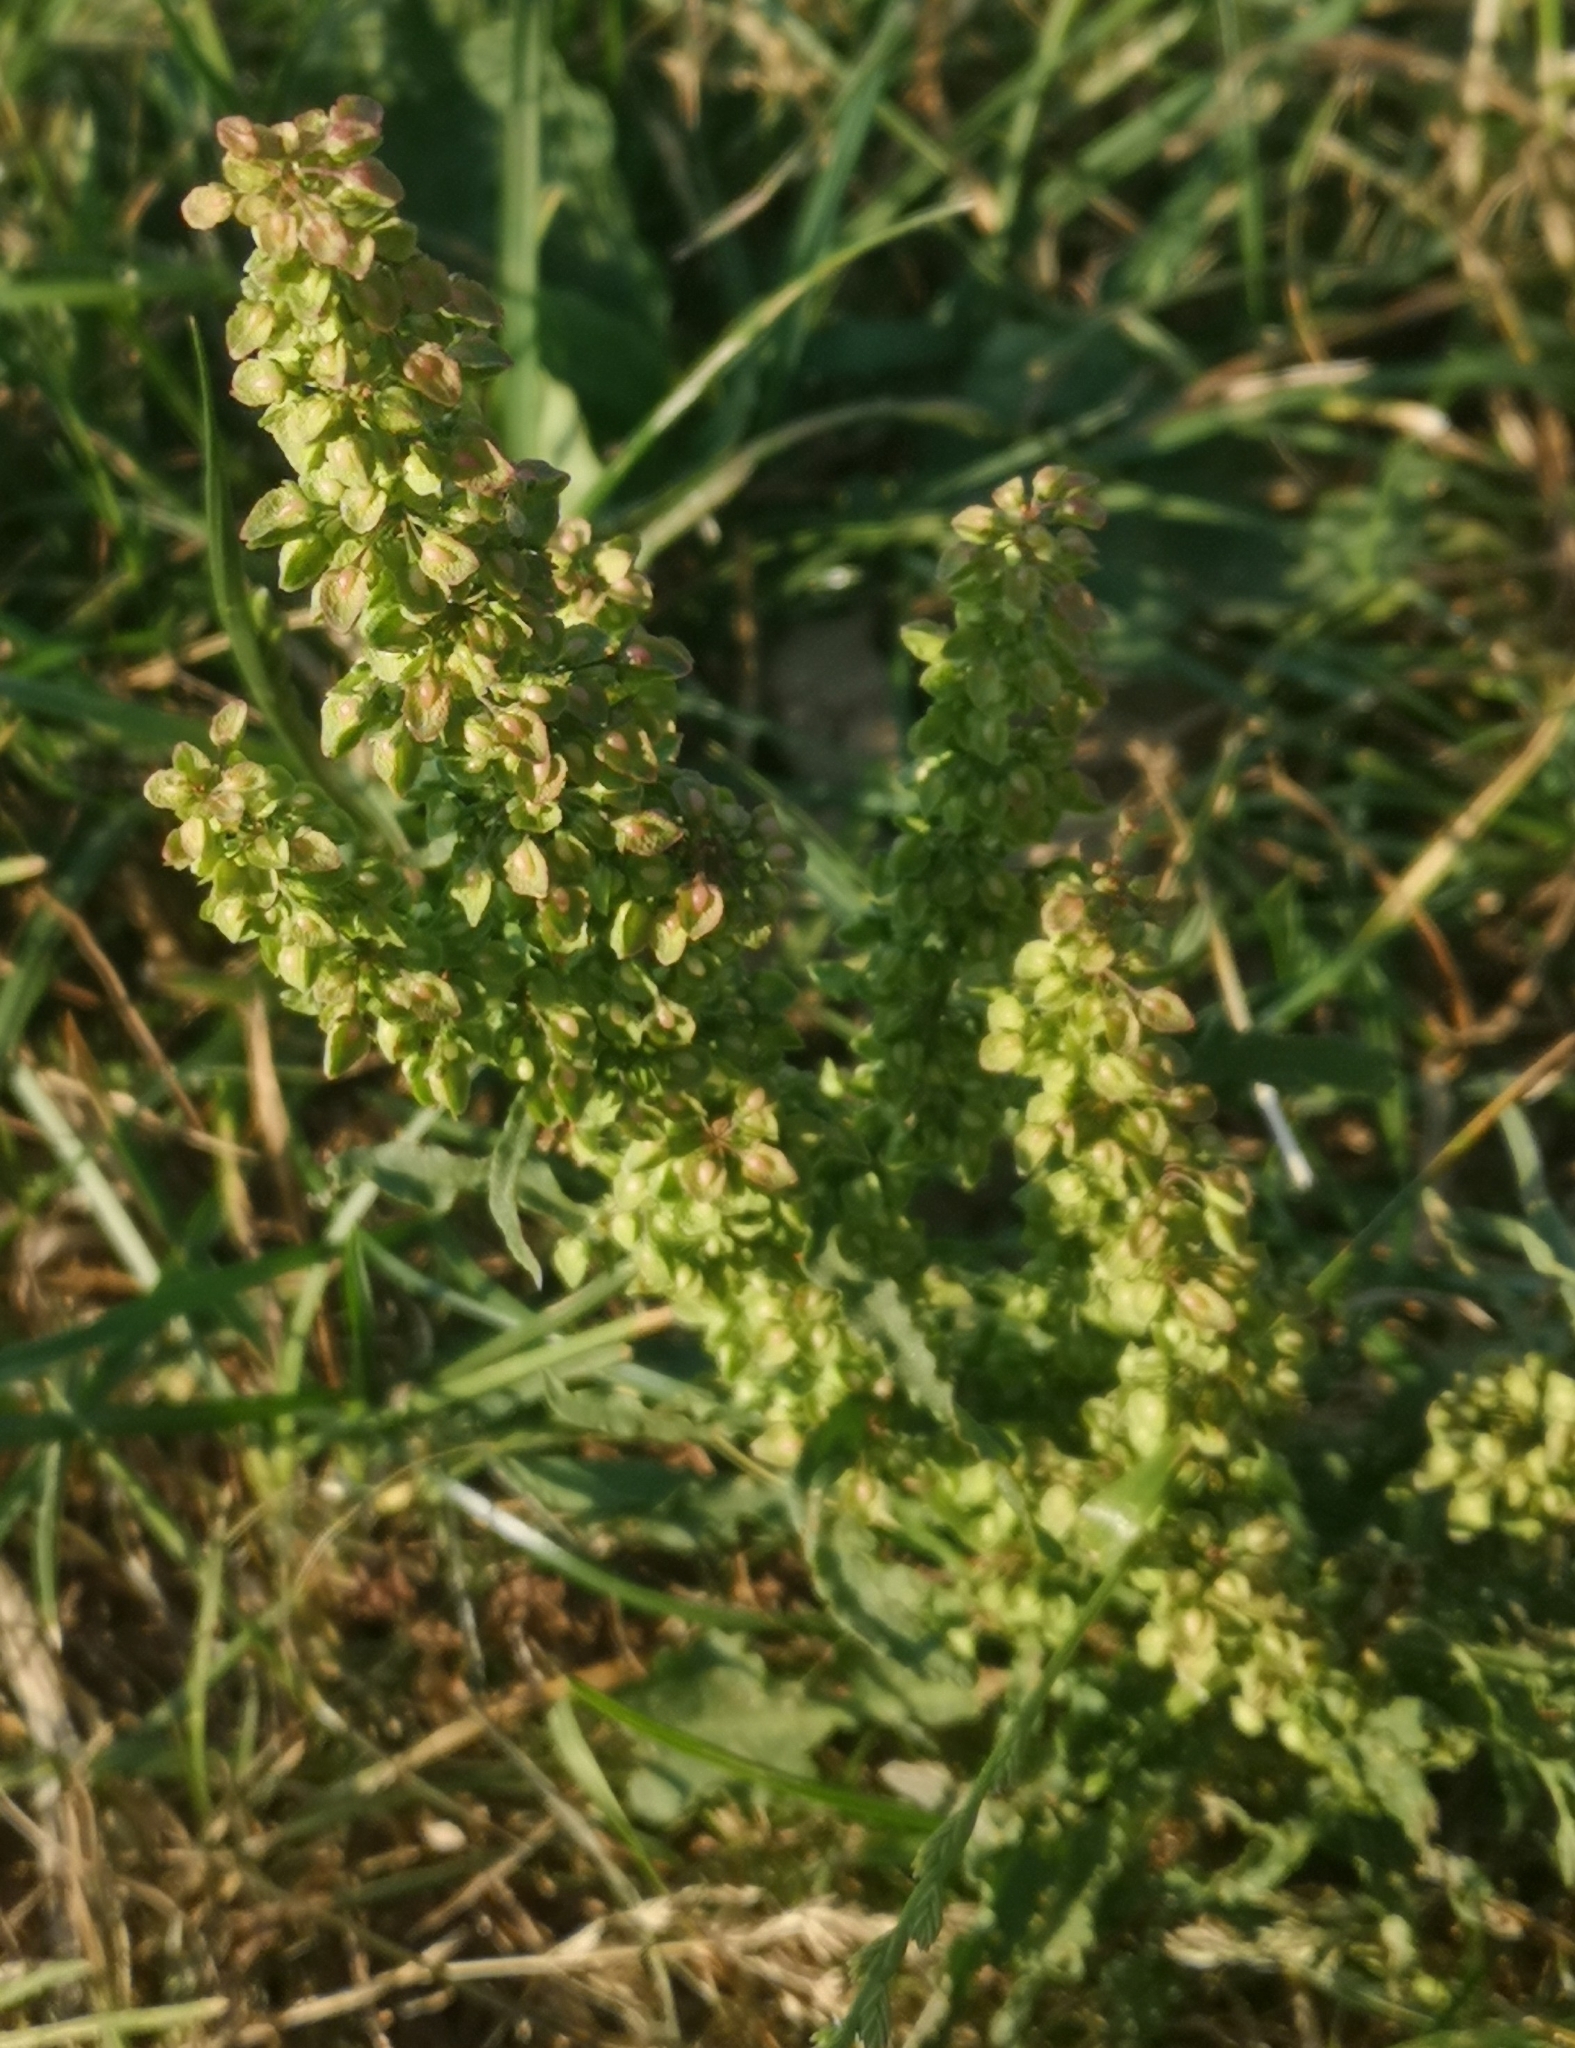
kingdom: Plantae
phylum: Tracheophyta
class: Magnoliopsida
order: Caryophyllales
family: Polygonaceae
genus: Rumex
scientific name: Rumex crispus
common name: Curled dock
